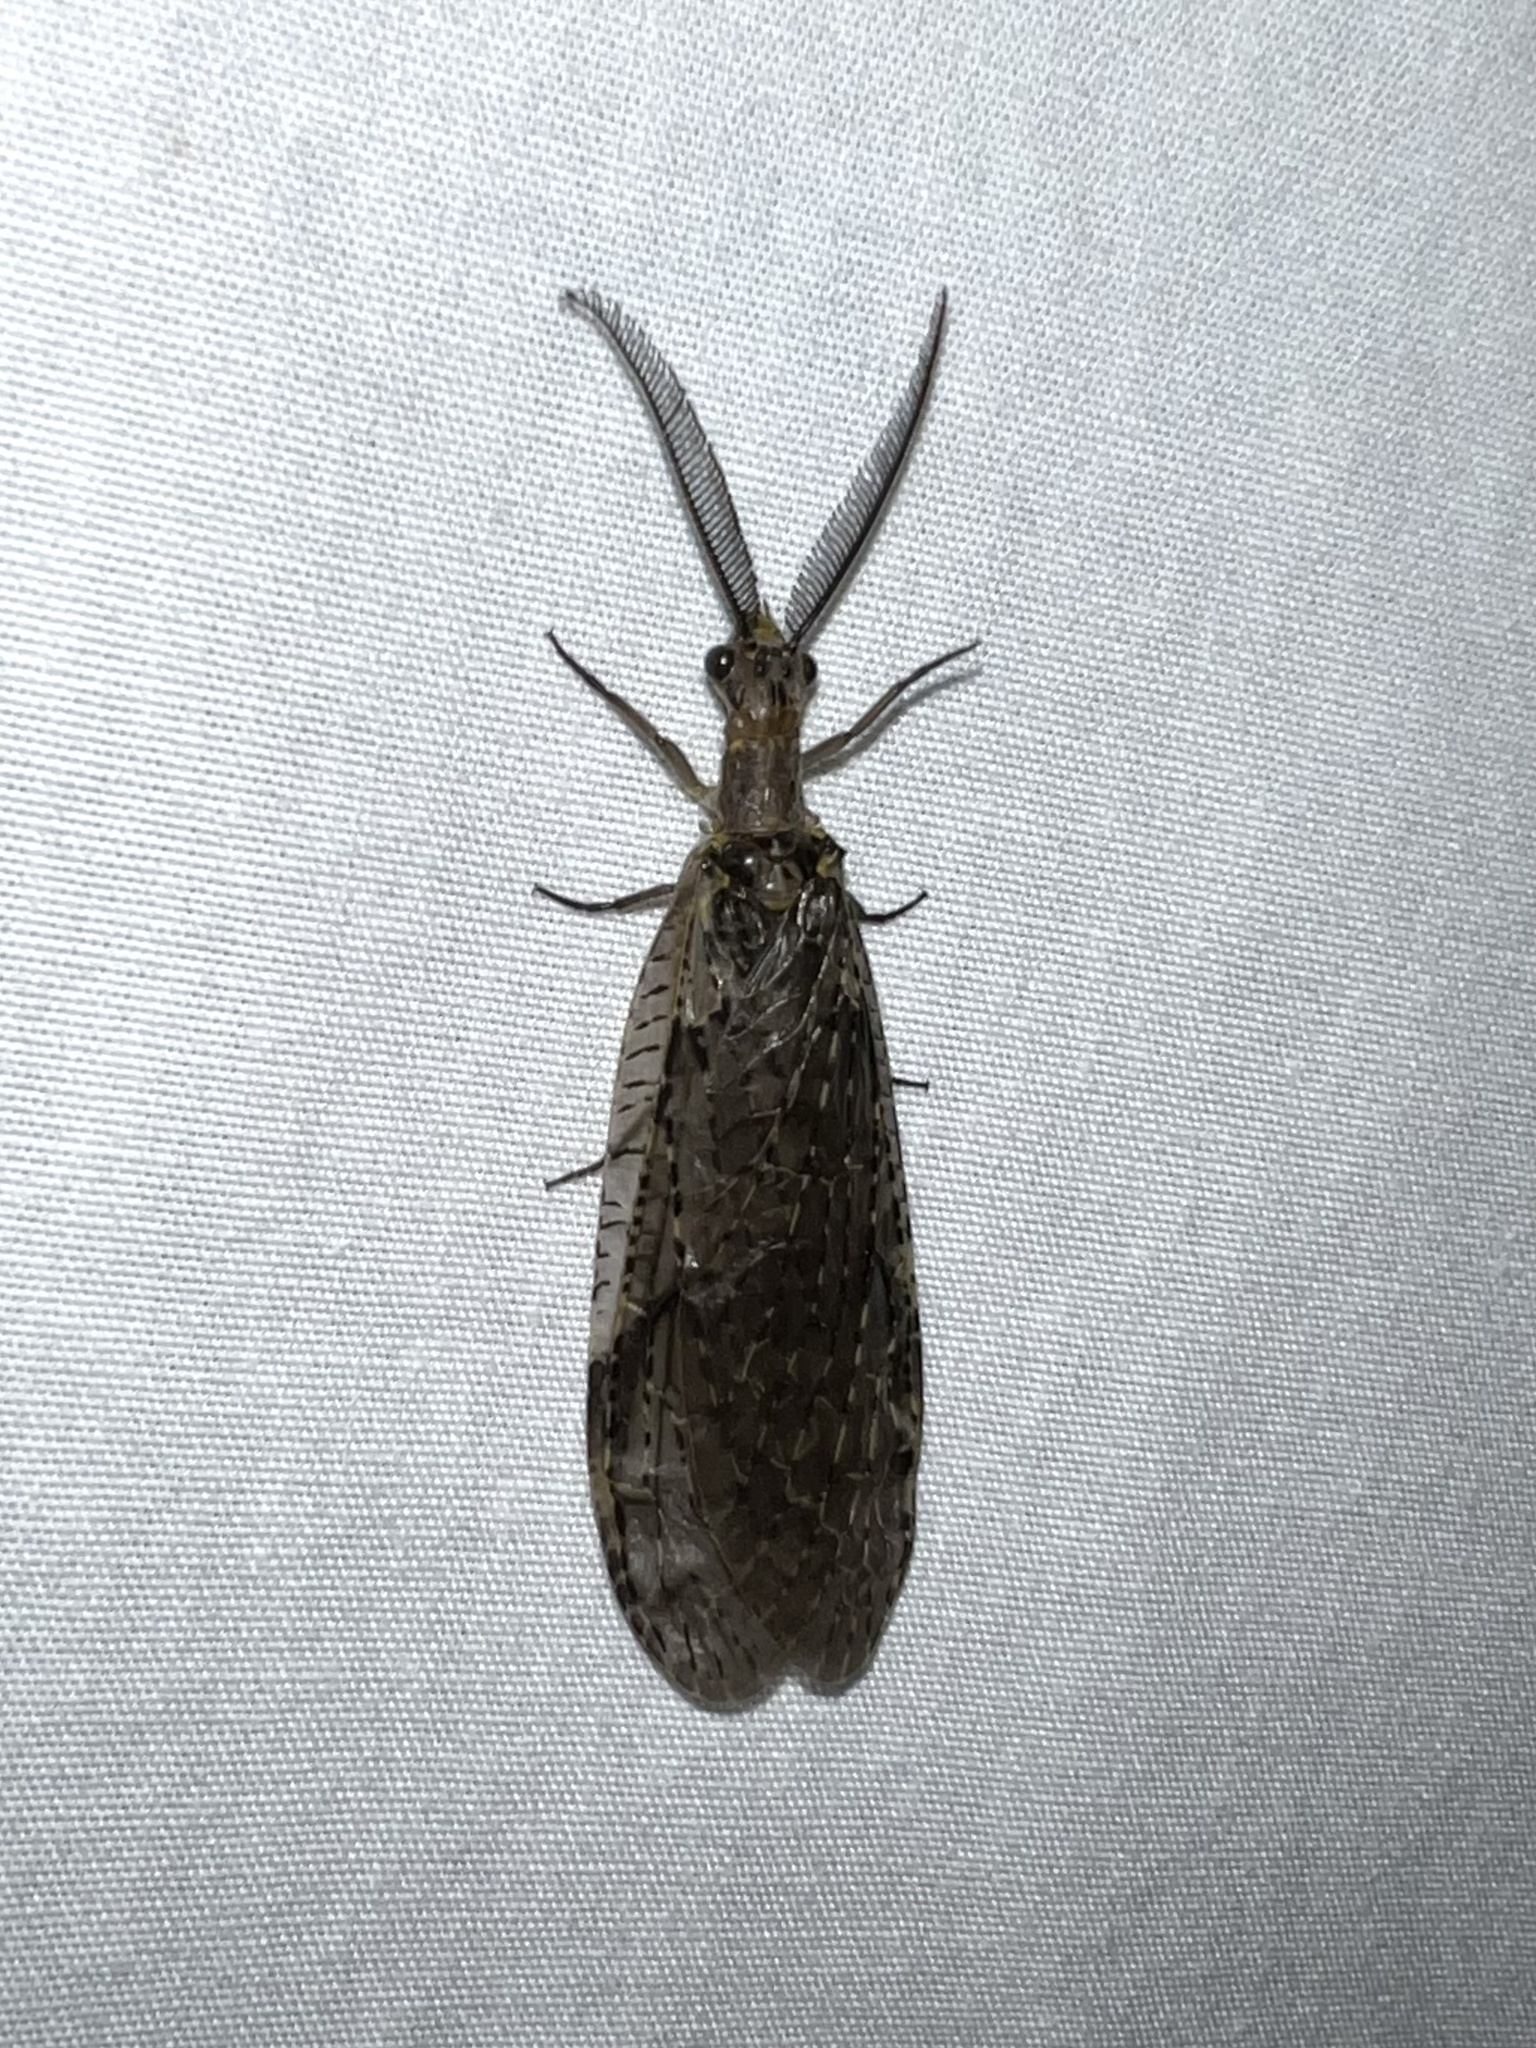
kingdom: Animalia
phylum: Arthropoda
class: Insecta
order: Megaloptera
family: Corydalidae
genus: Chauliodes
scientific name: Chauliodes rastricornis
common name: Spring fishfly
